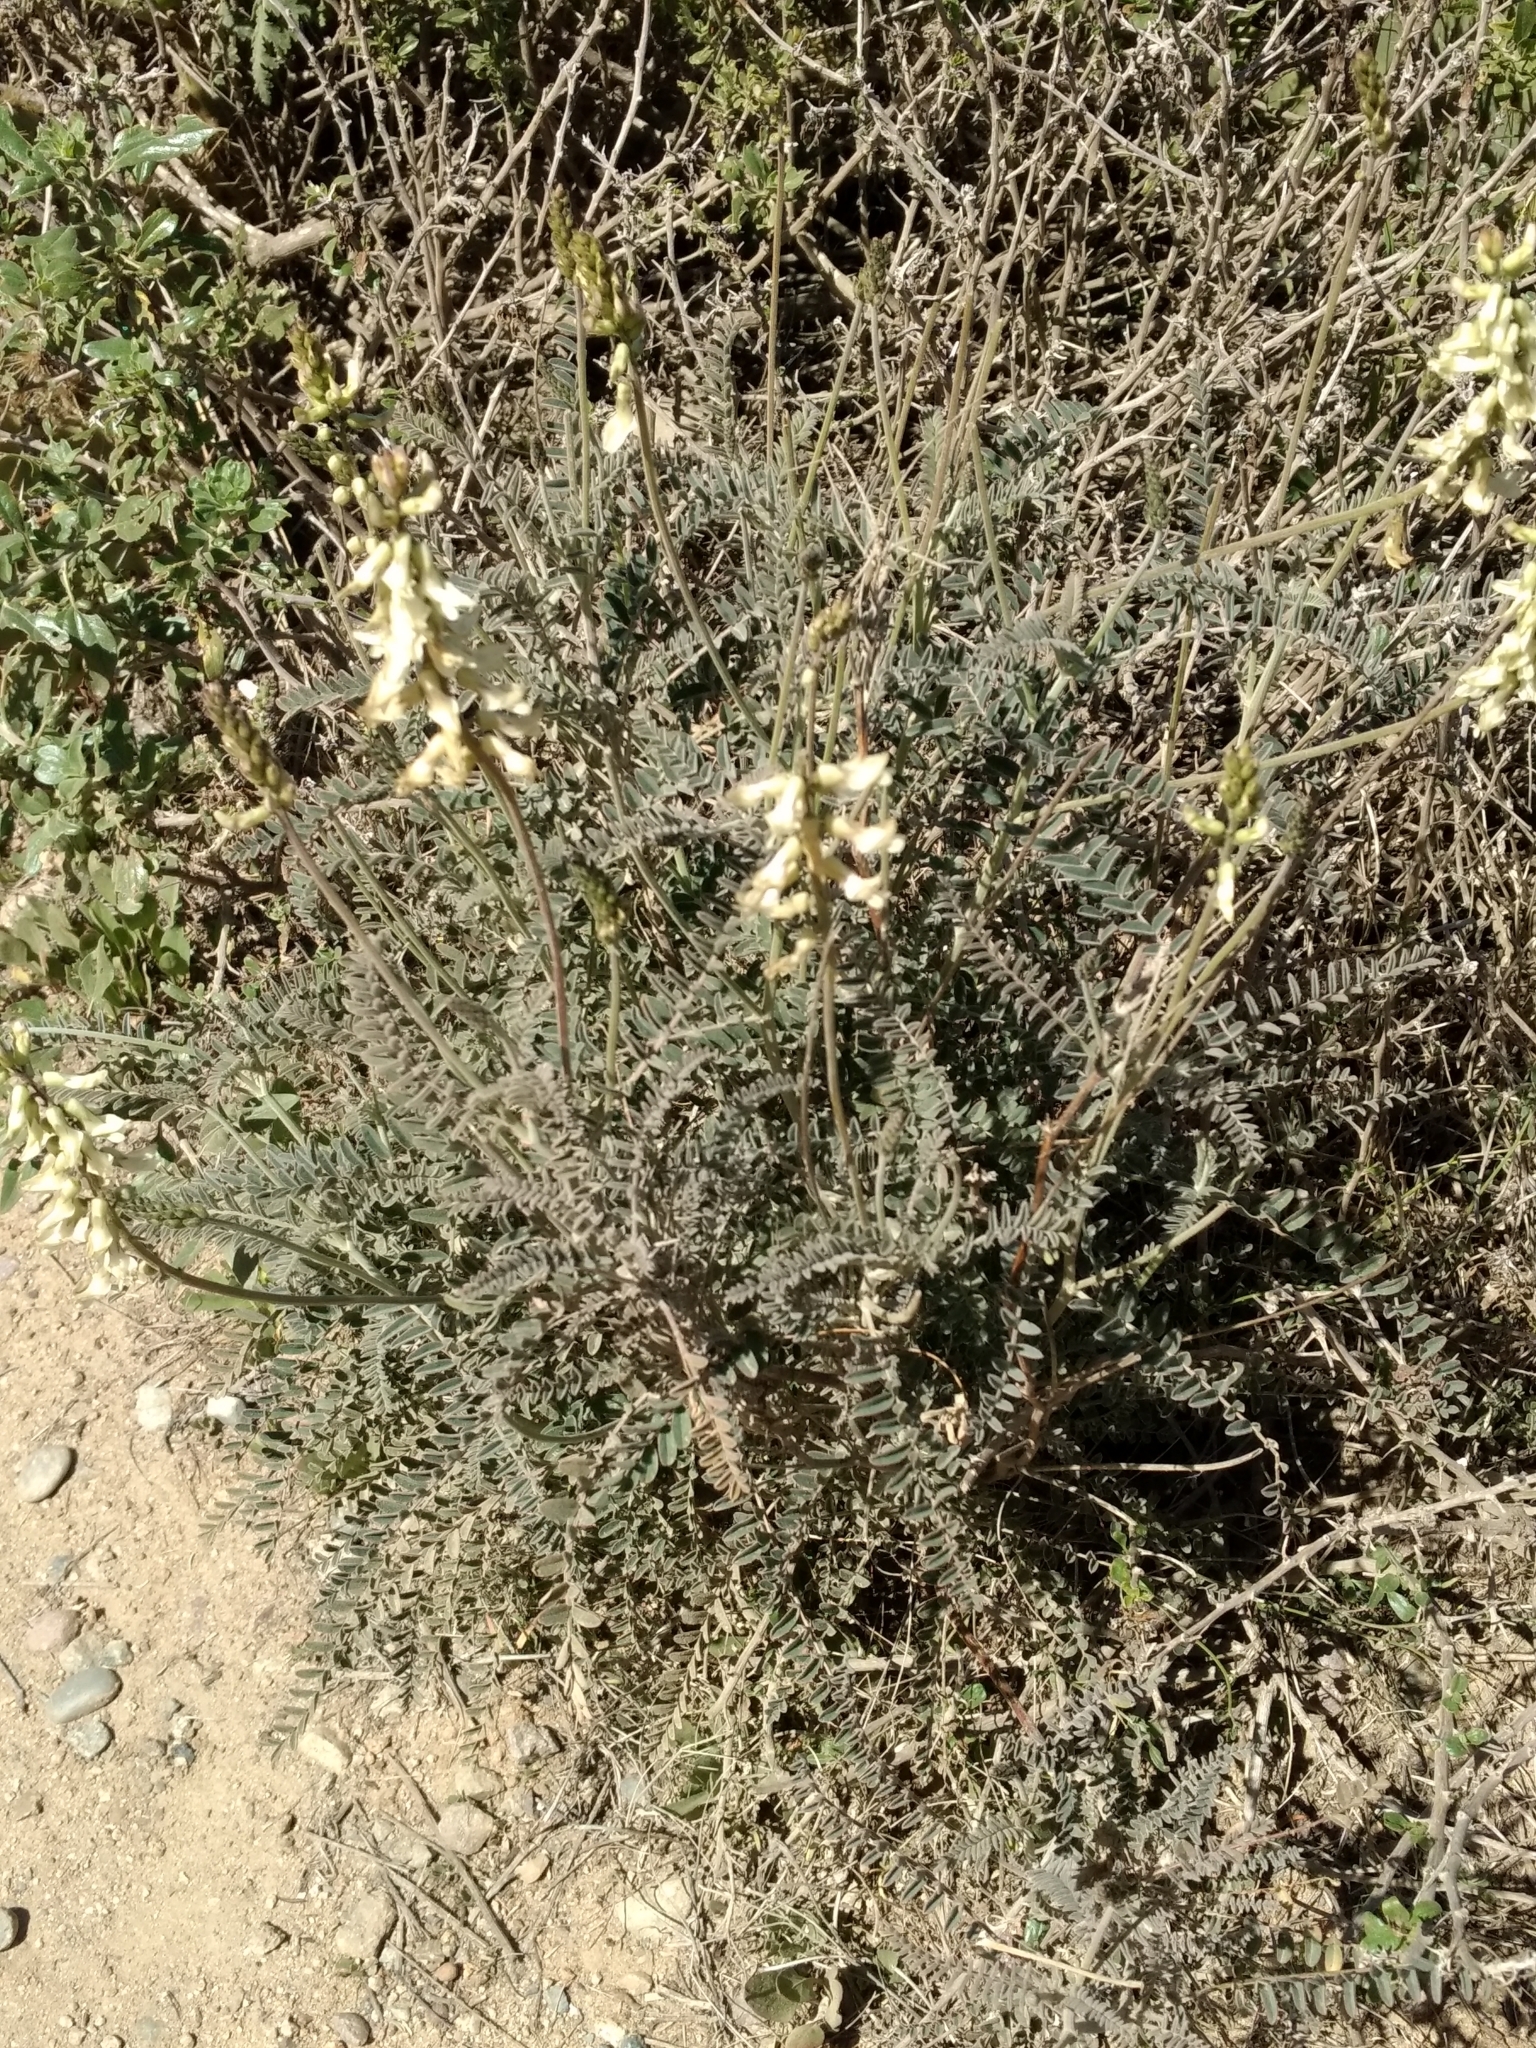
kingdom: Plantae
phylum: Tracheophyta
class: Magnoliopsida
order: Fabales
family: Fabaceae
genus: Astragalus
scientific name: Astragalus trichopodus
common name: Santa barbara milk-vetch
